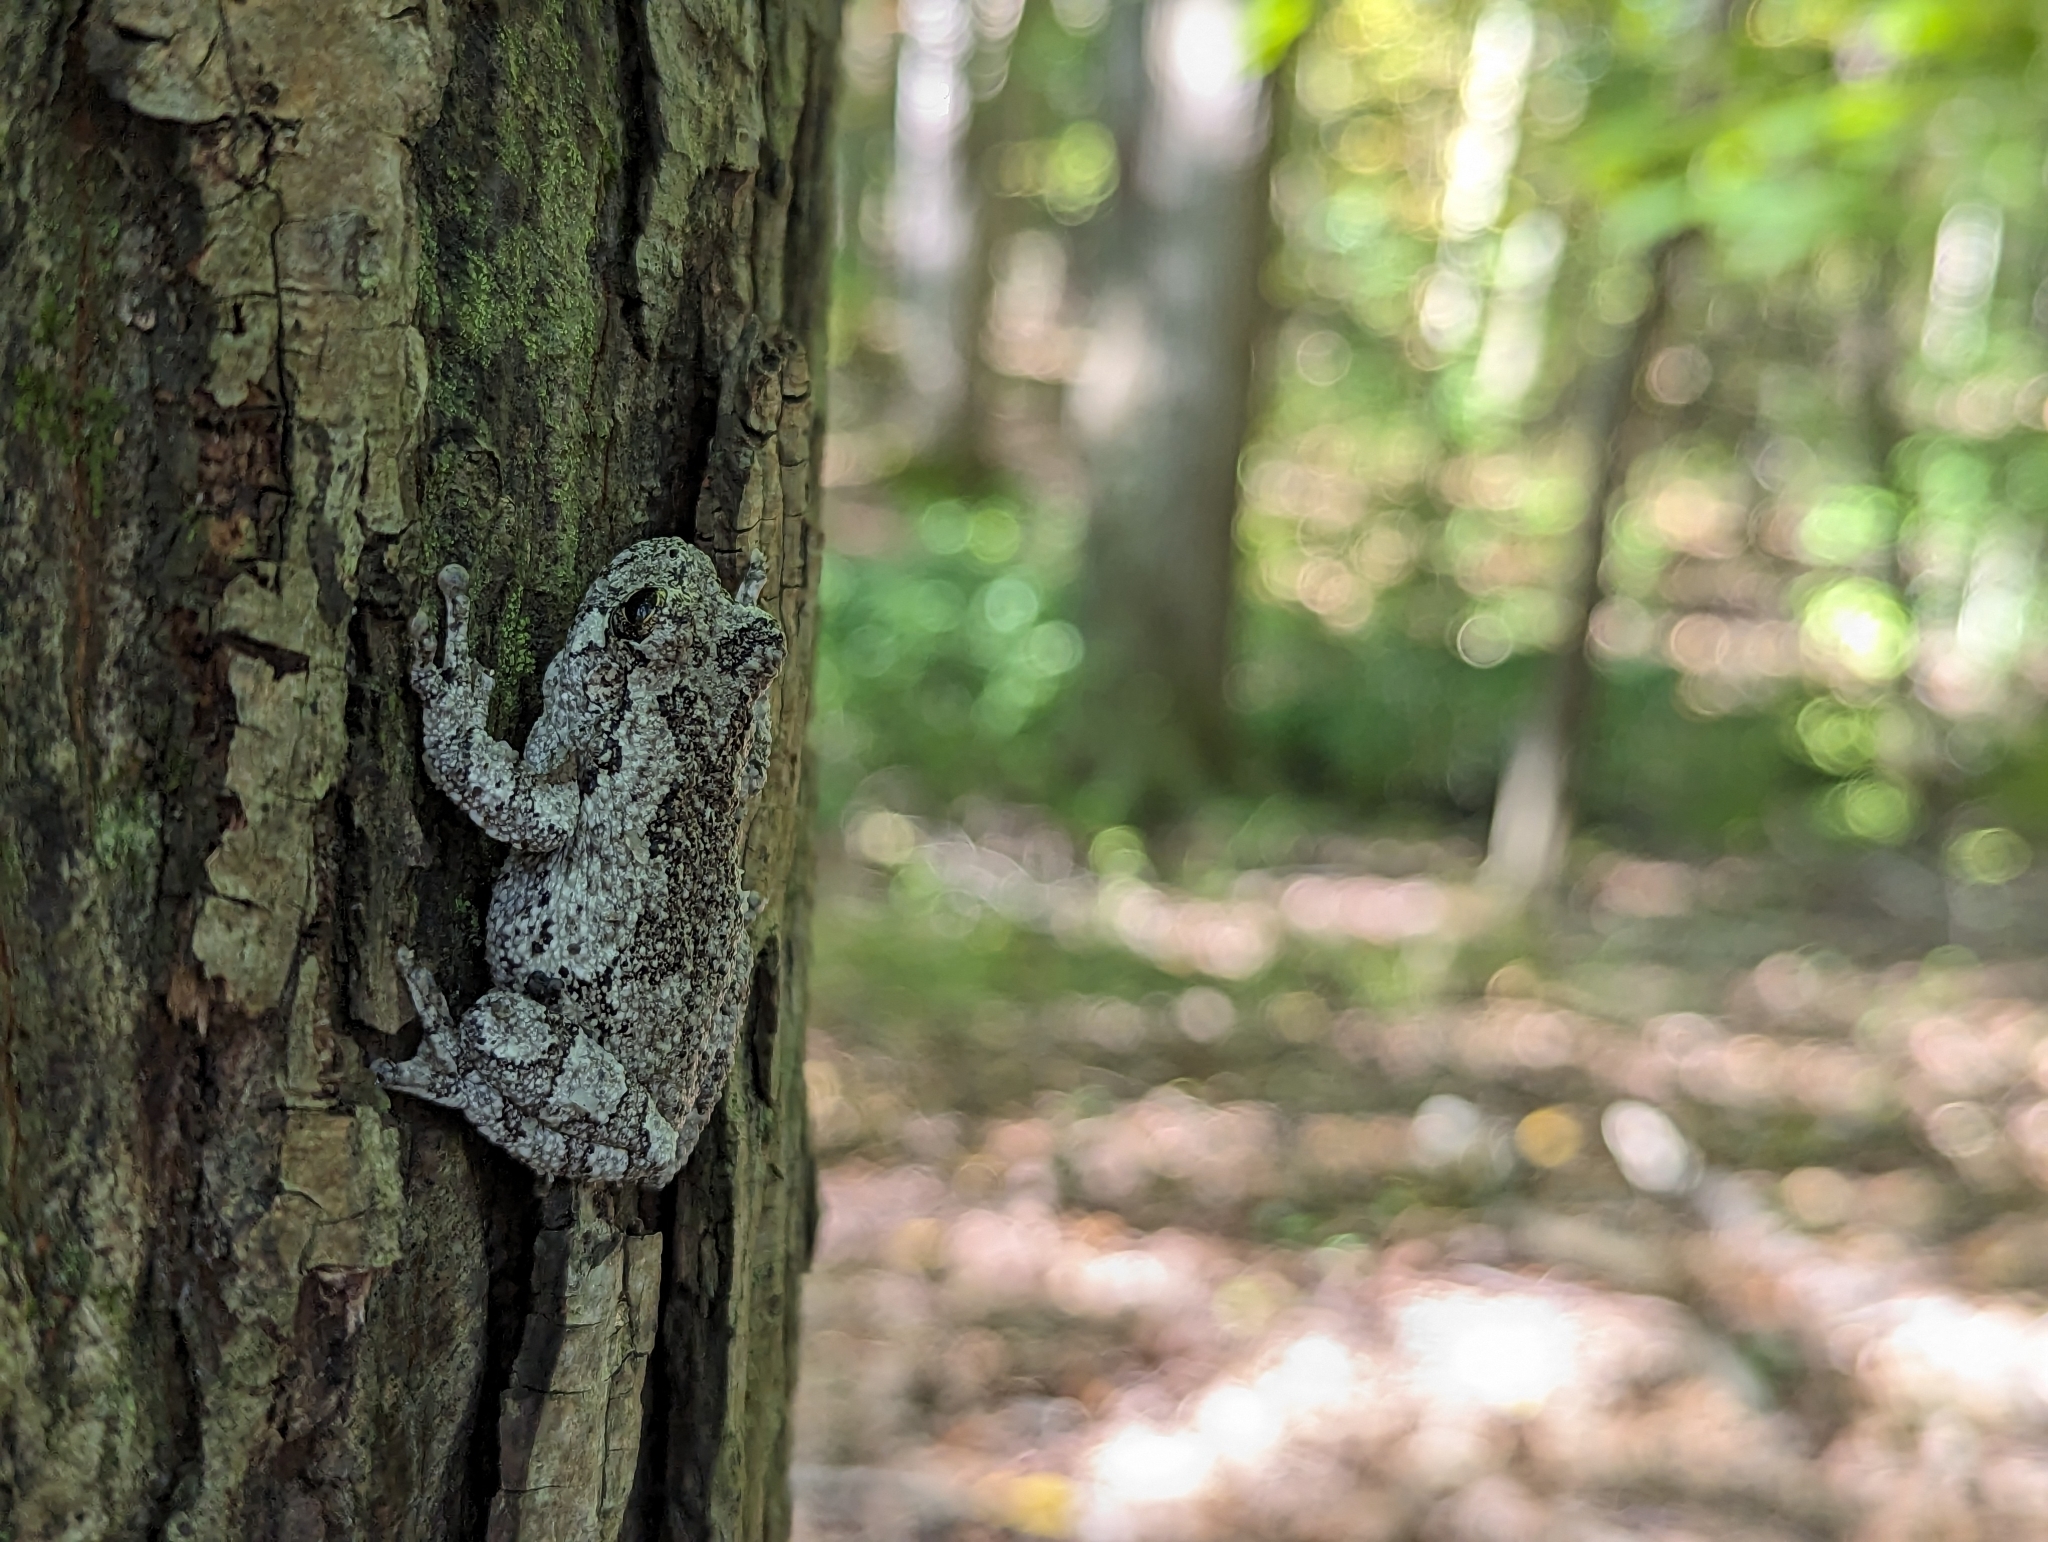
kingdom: Animalia
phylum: Chordata
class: Amphibia
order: Anura
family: Hylidae
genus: Dryophytes
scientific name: Dryophytes versicolor
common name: Gray treefrog
